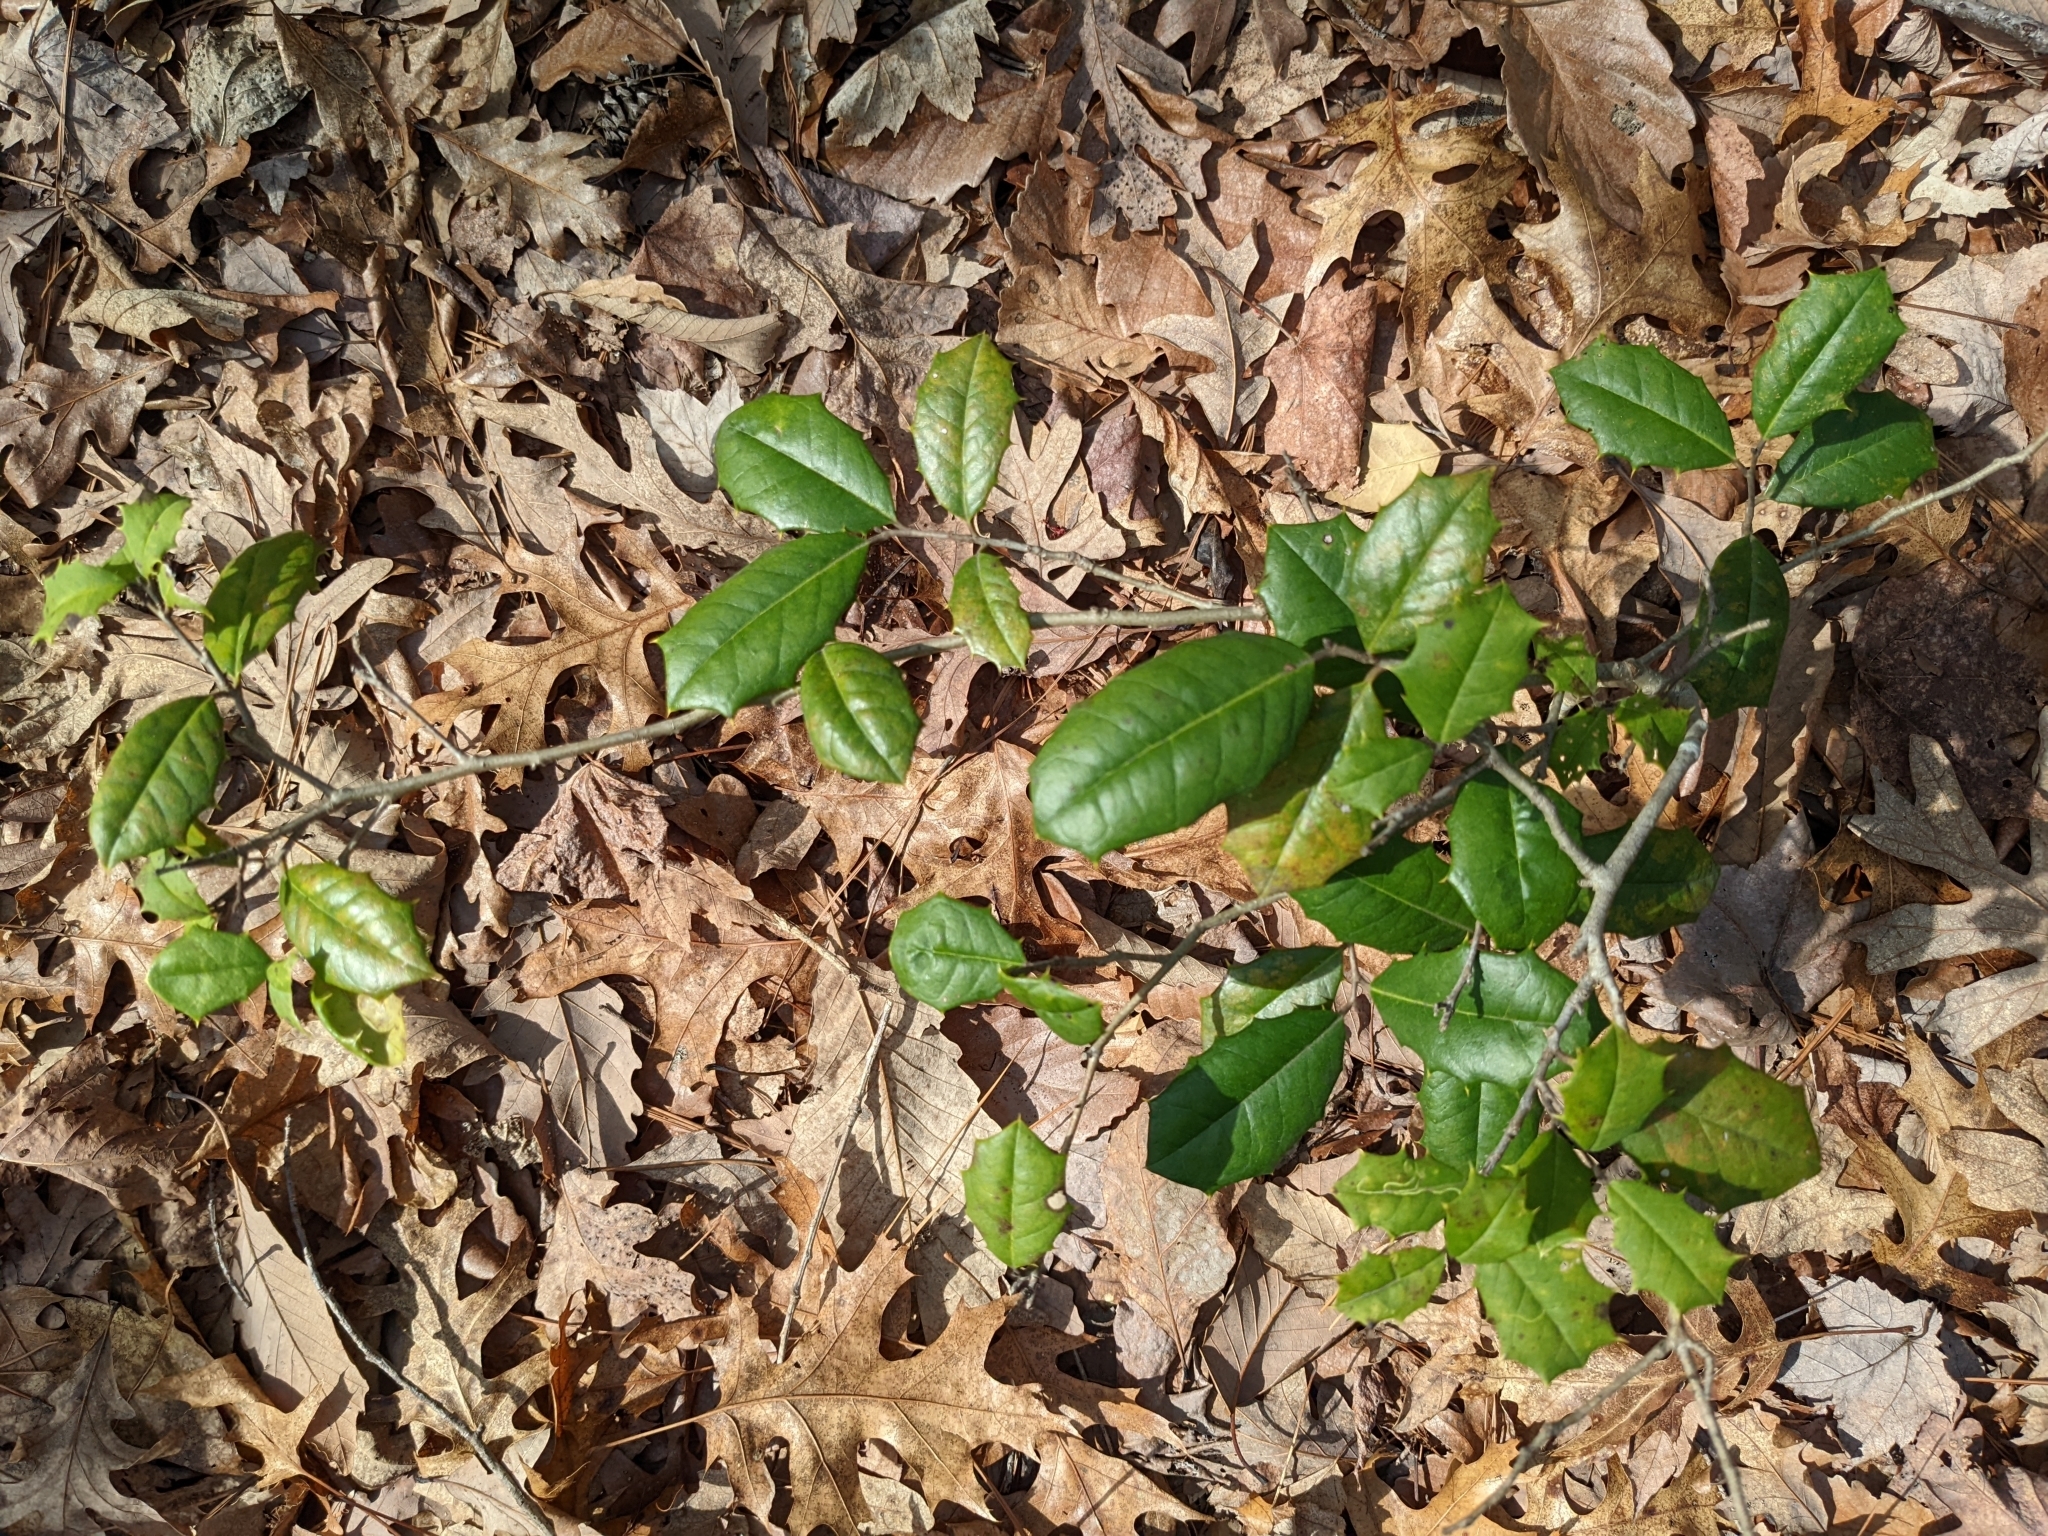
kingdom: Plantae
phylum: Tracheophyta
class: Magnoliopsida
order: Aquifoliales
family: Aquifoliaceae
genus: Ilex
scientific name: Ilex opaca
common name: American holly
